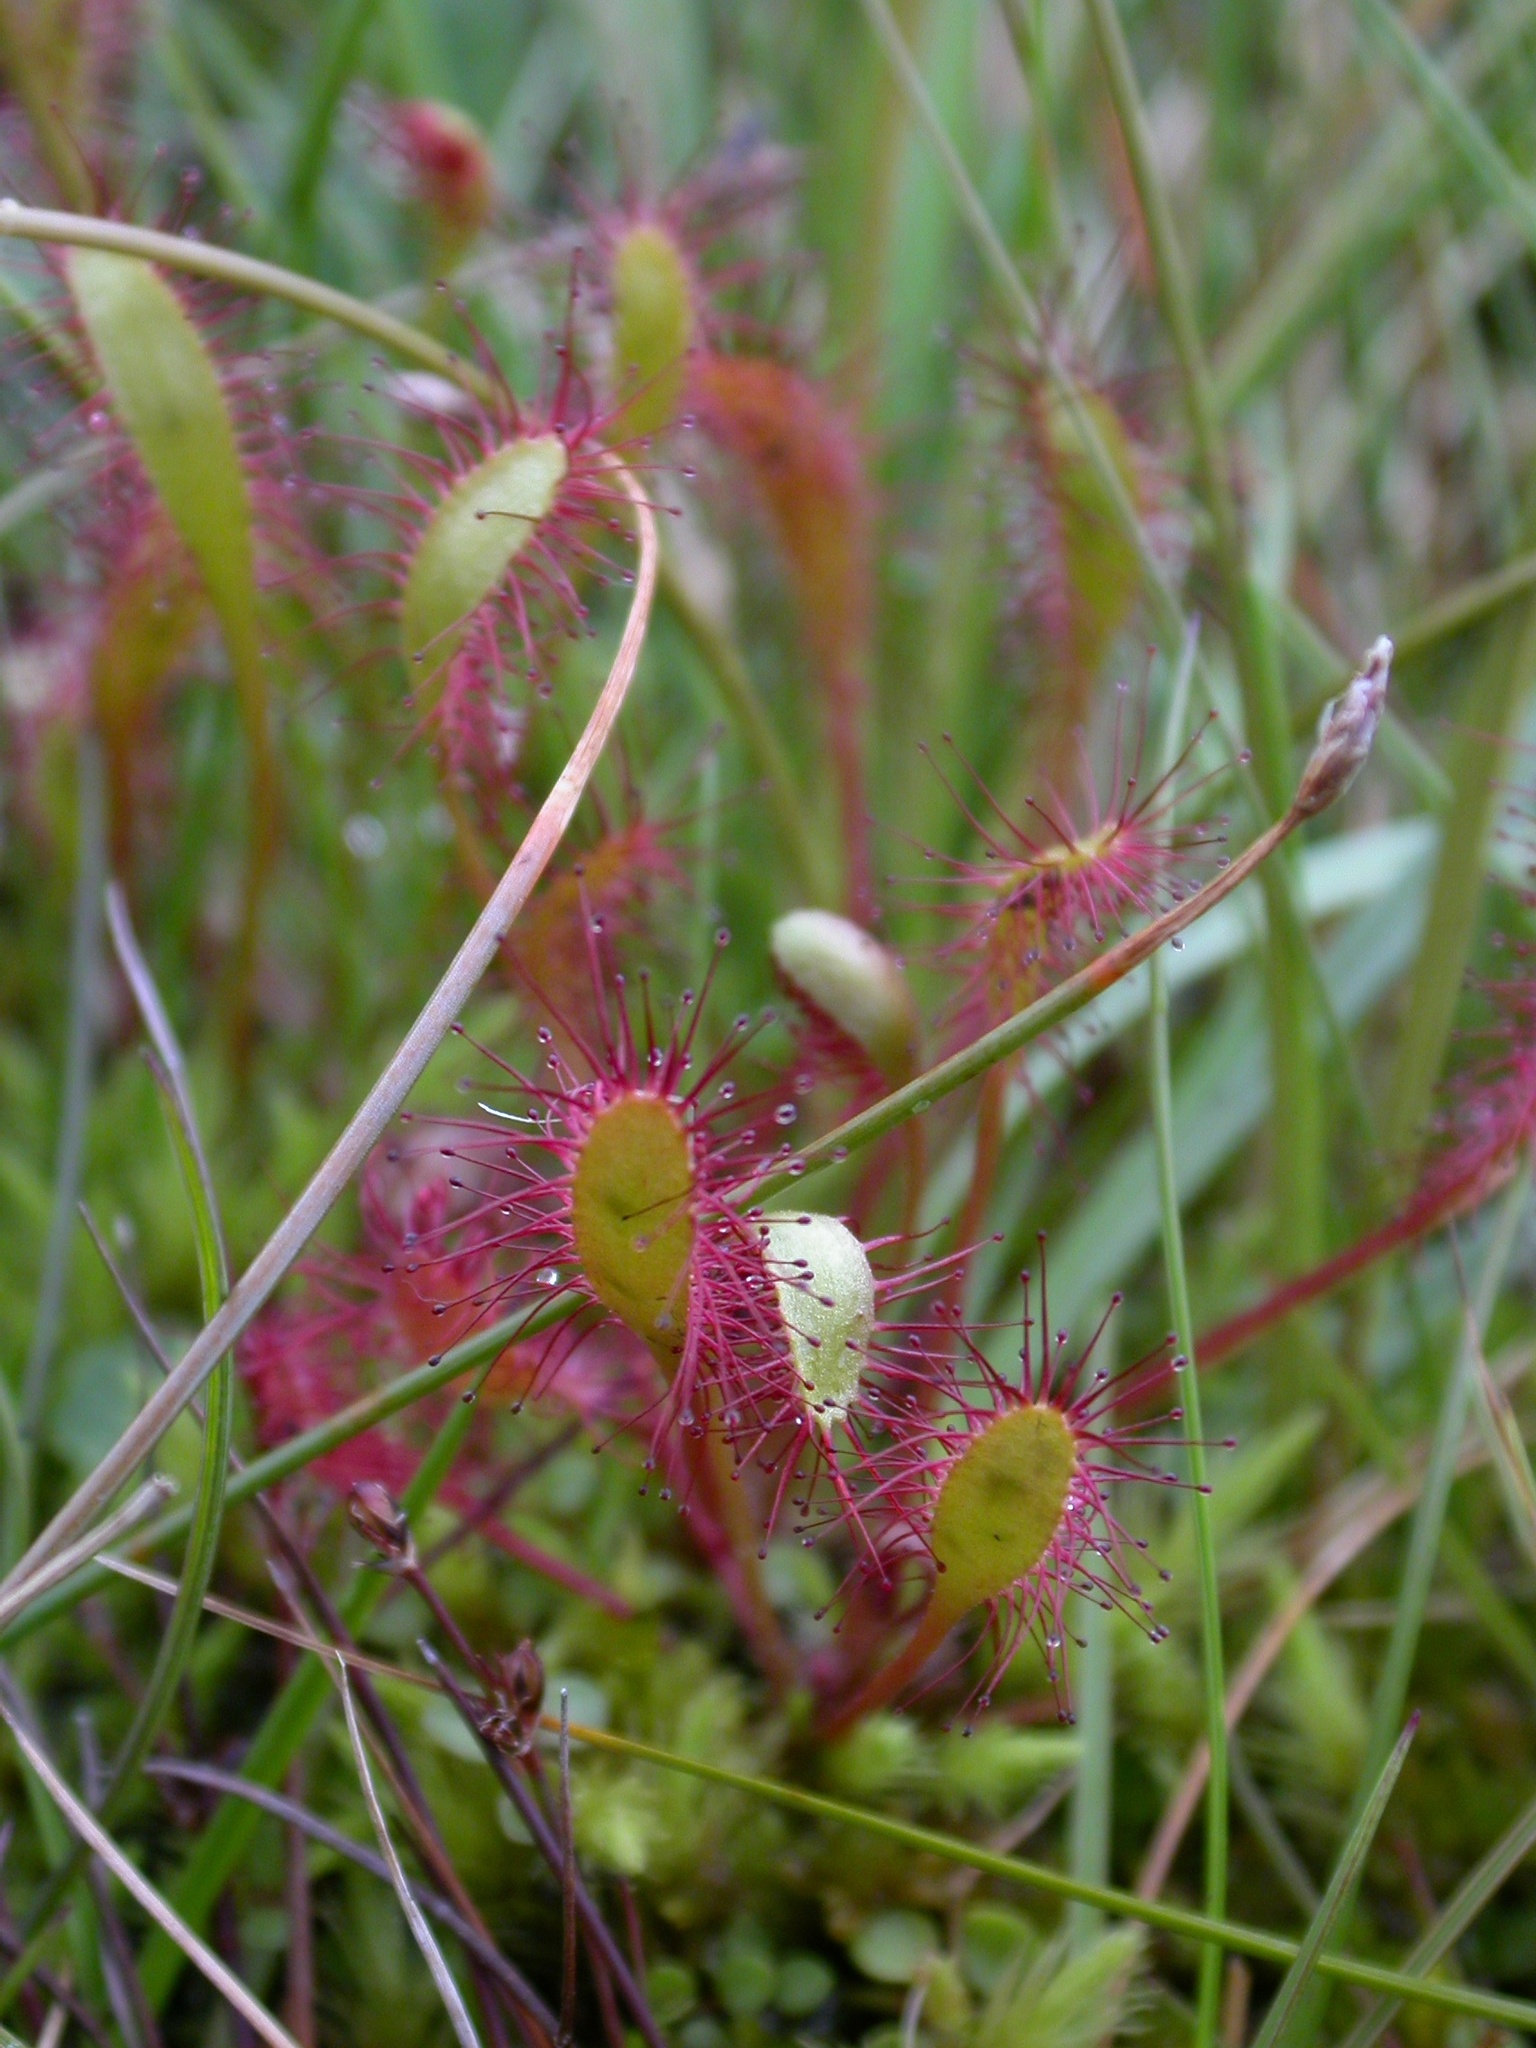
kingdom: Plantae
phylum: Tracheophyta
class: Magnoliopsida
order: Caryophyllales
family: Droseraceae
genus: Drosera
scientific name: Drosera anglica
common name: Great sundew
